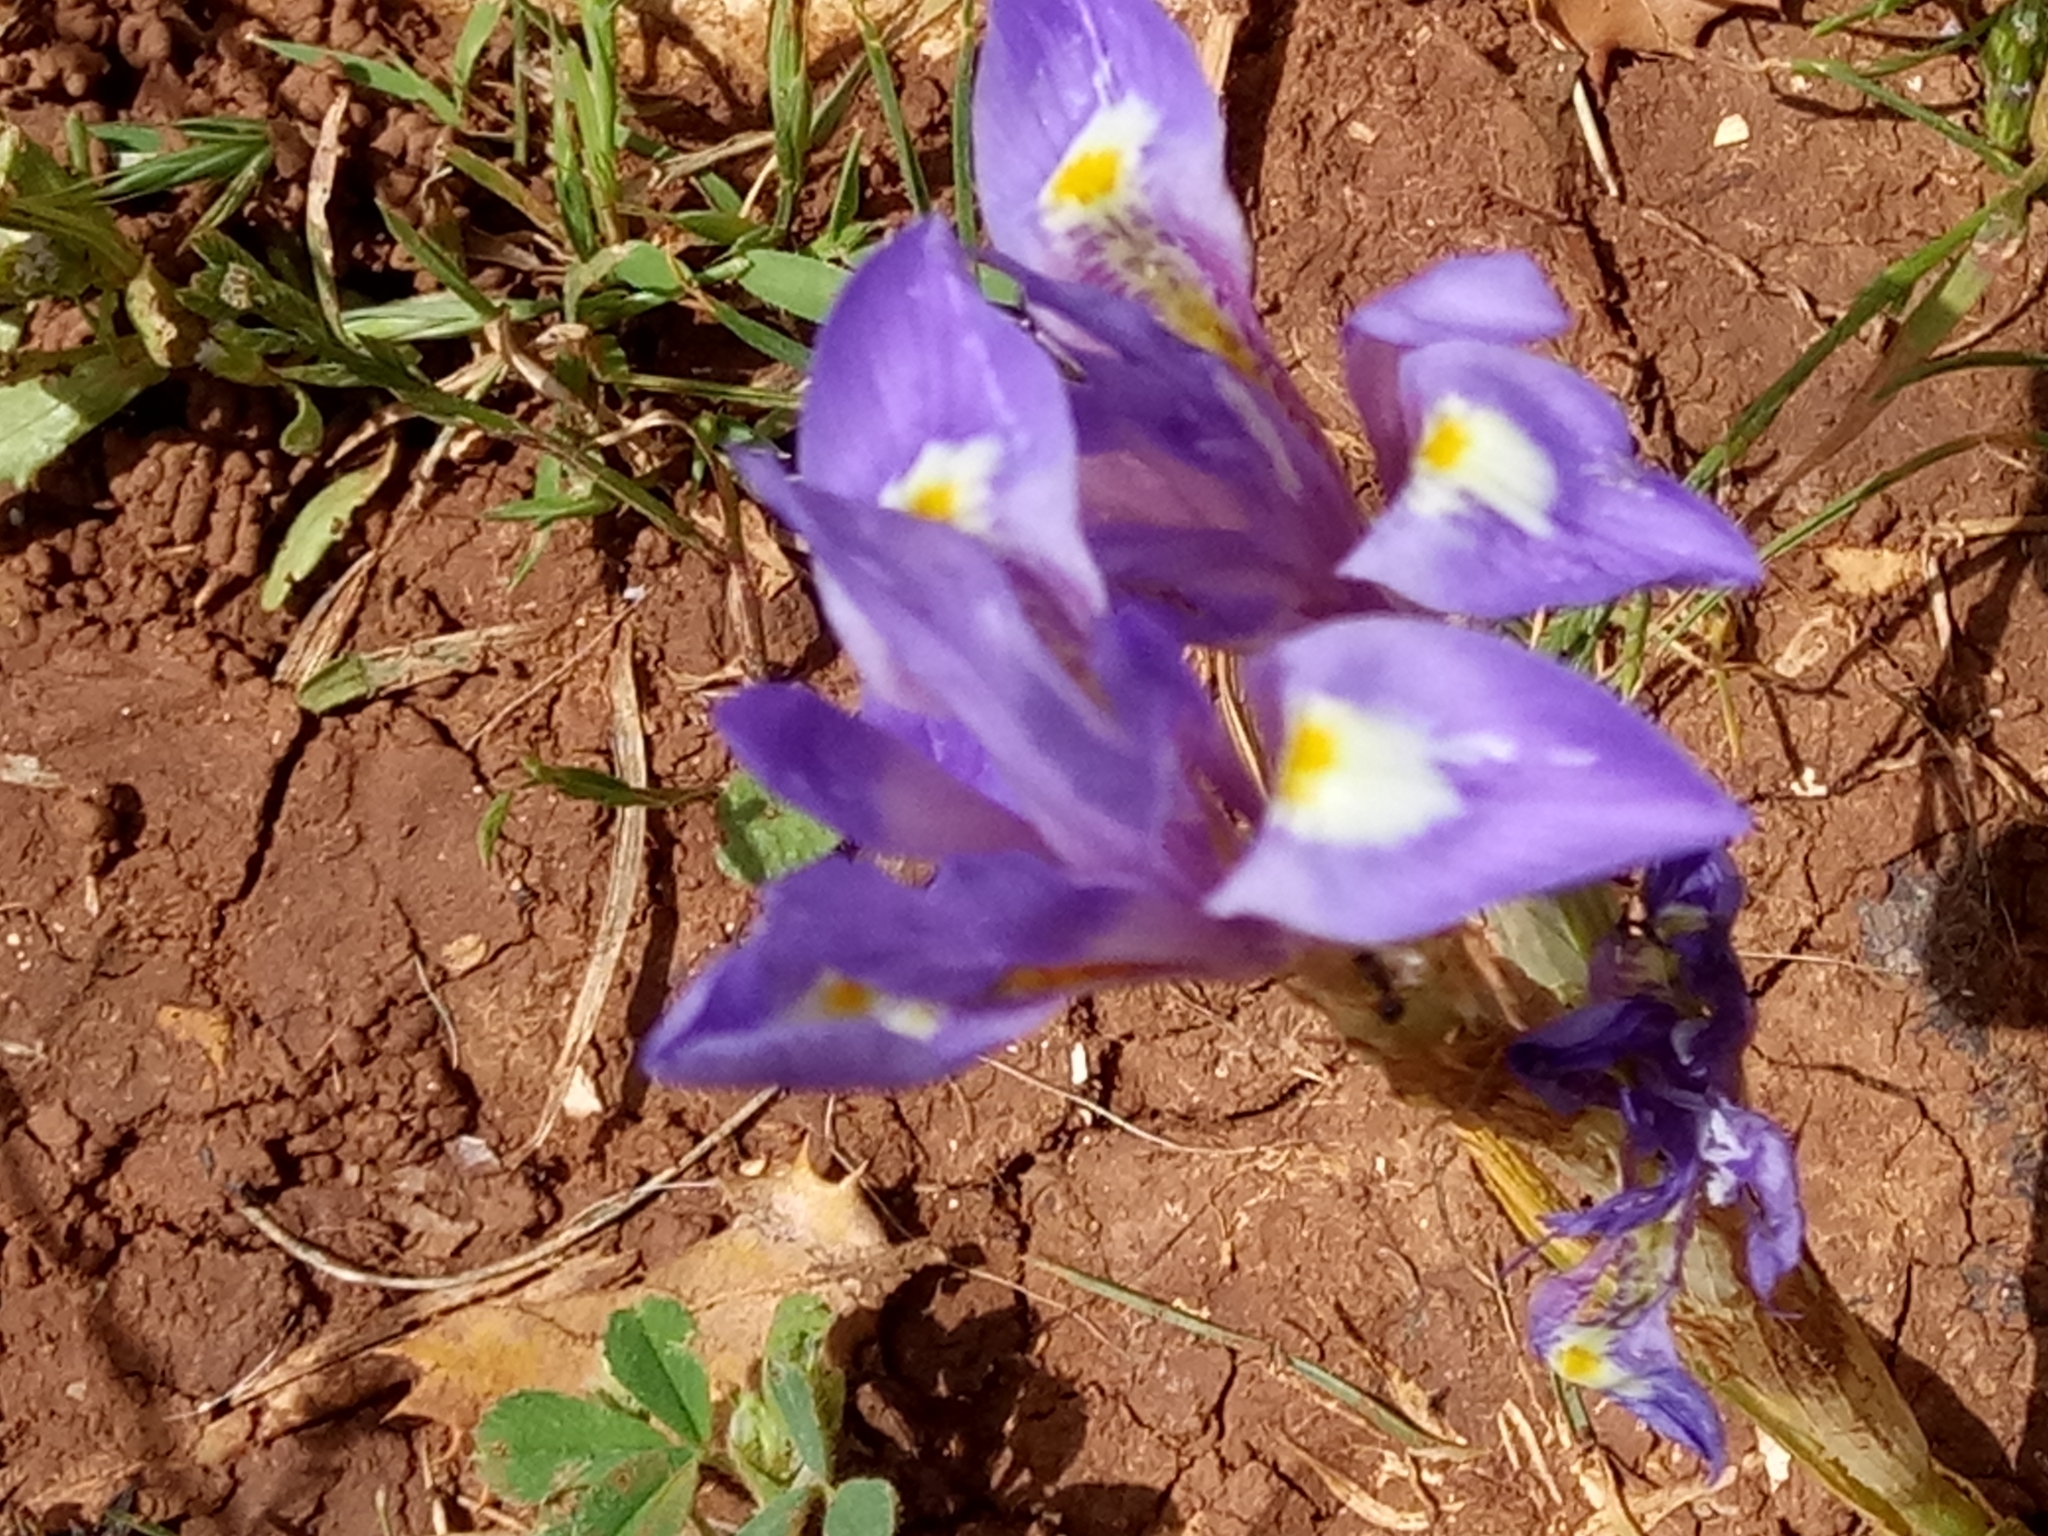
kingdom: Plantae
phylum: Tracheophyta
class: Liliopsida
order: Asparagales
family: Iridaceae
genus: Moraea
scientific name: Moraea sisyrinchium
